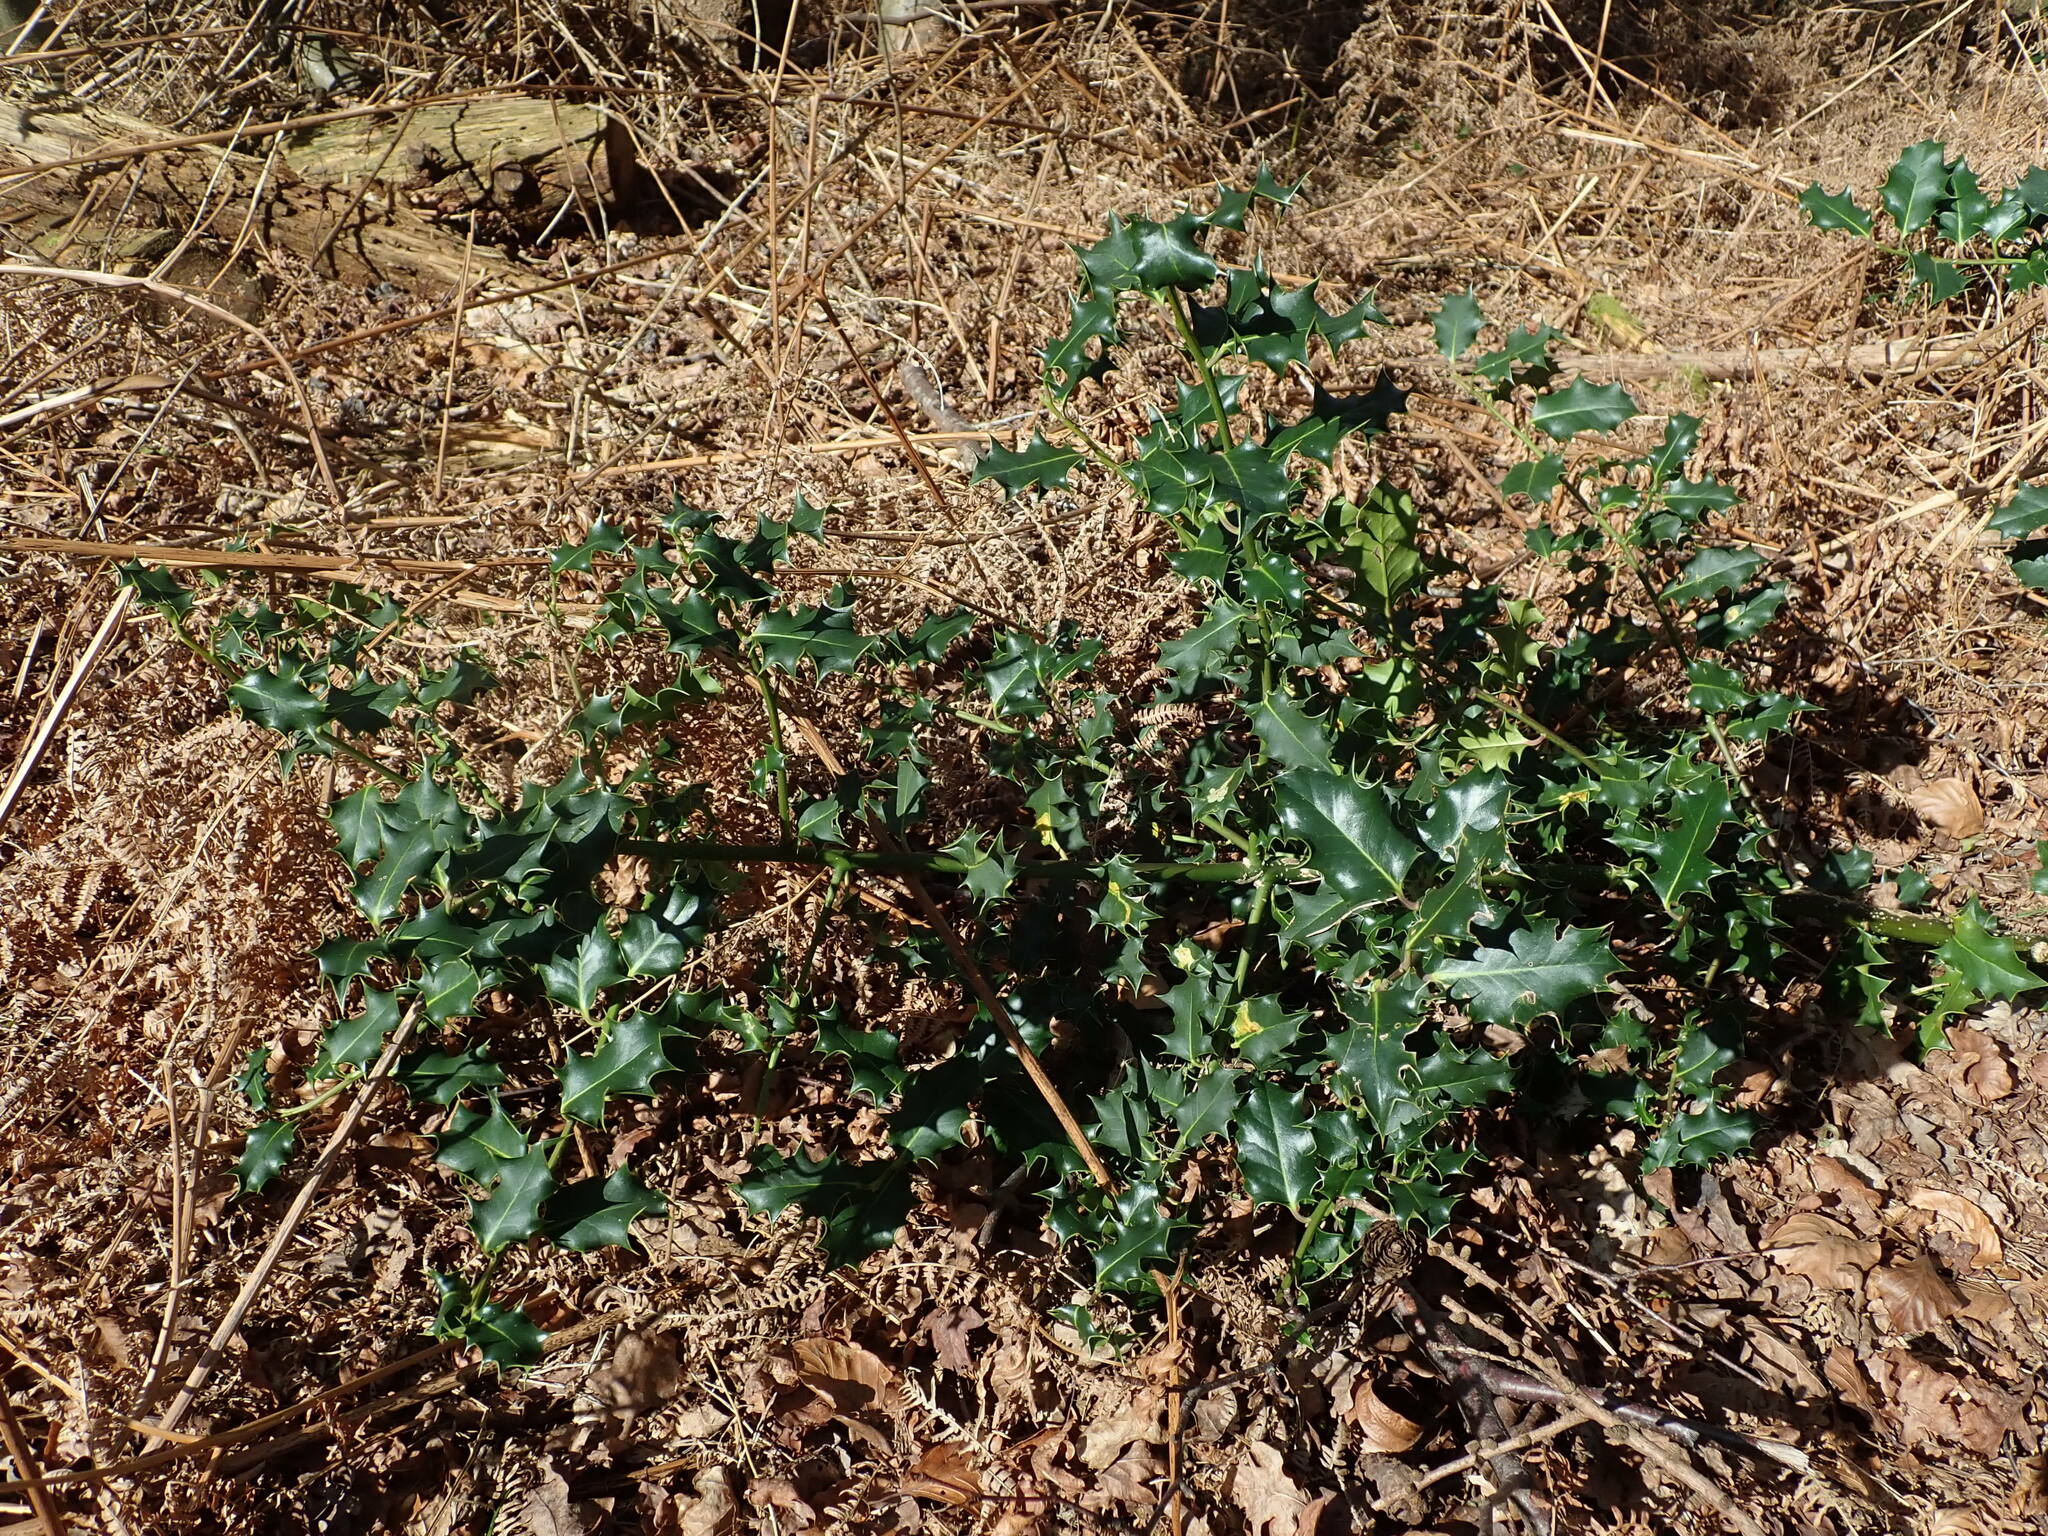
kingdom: Plantae
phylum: Tracheophyta
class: Magnoliopsida
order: Aquifoliales
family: Aquifoliaceae
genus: Ilex
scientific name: Ilex aquifolium
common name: English holly
